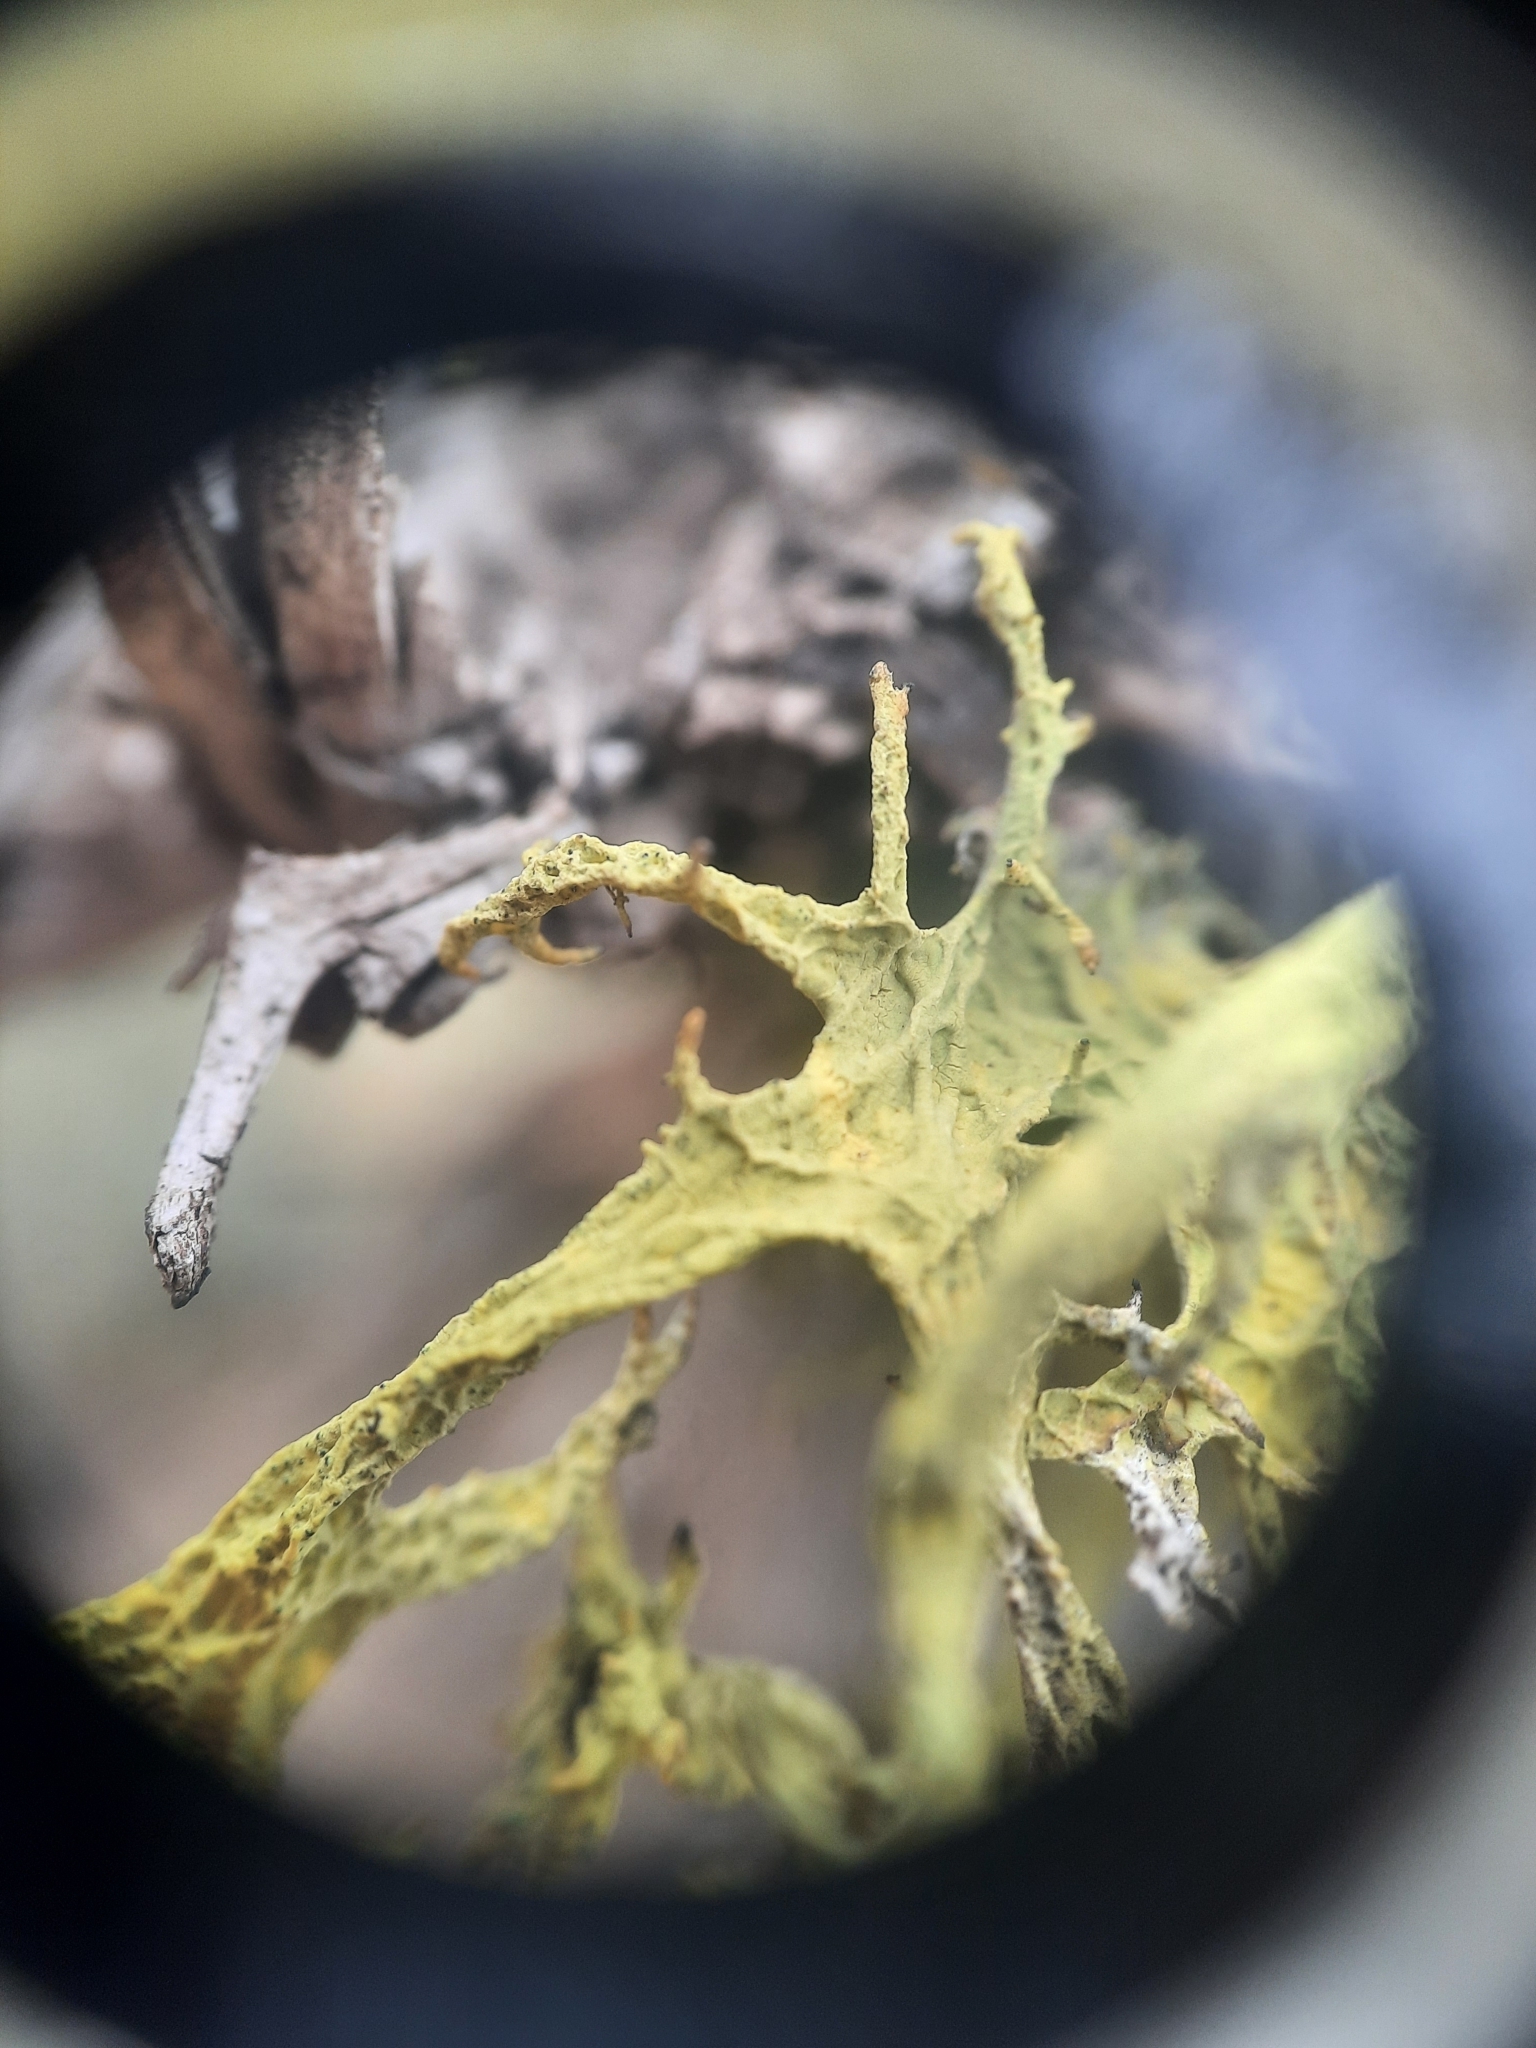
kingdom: Fungi
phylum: Ascomycota
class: Lecanoromycetes
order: Lecanorales
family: Parmeliaceae
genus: Letharia
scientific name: Letharia vulpina
